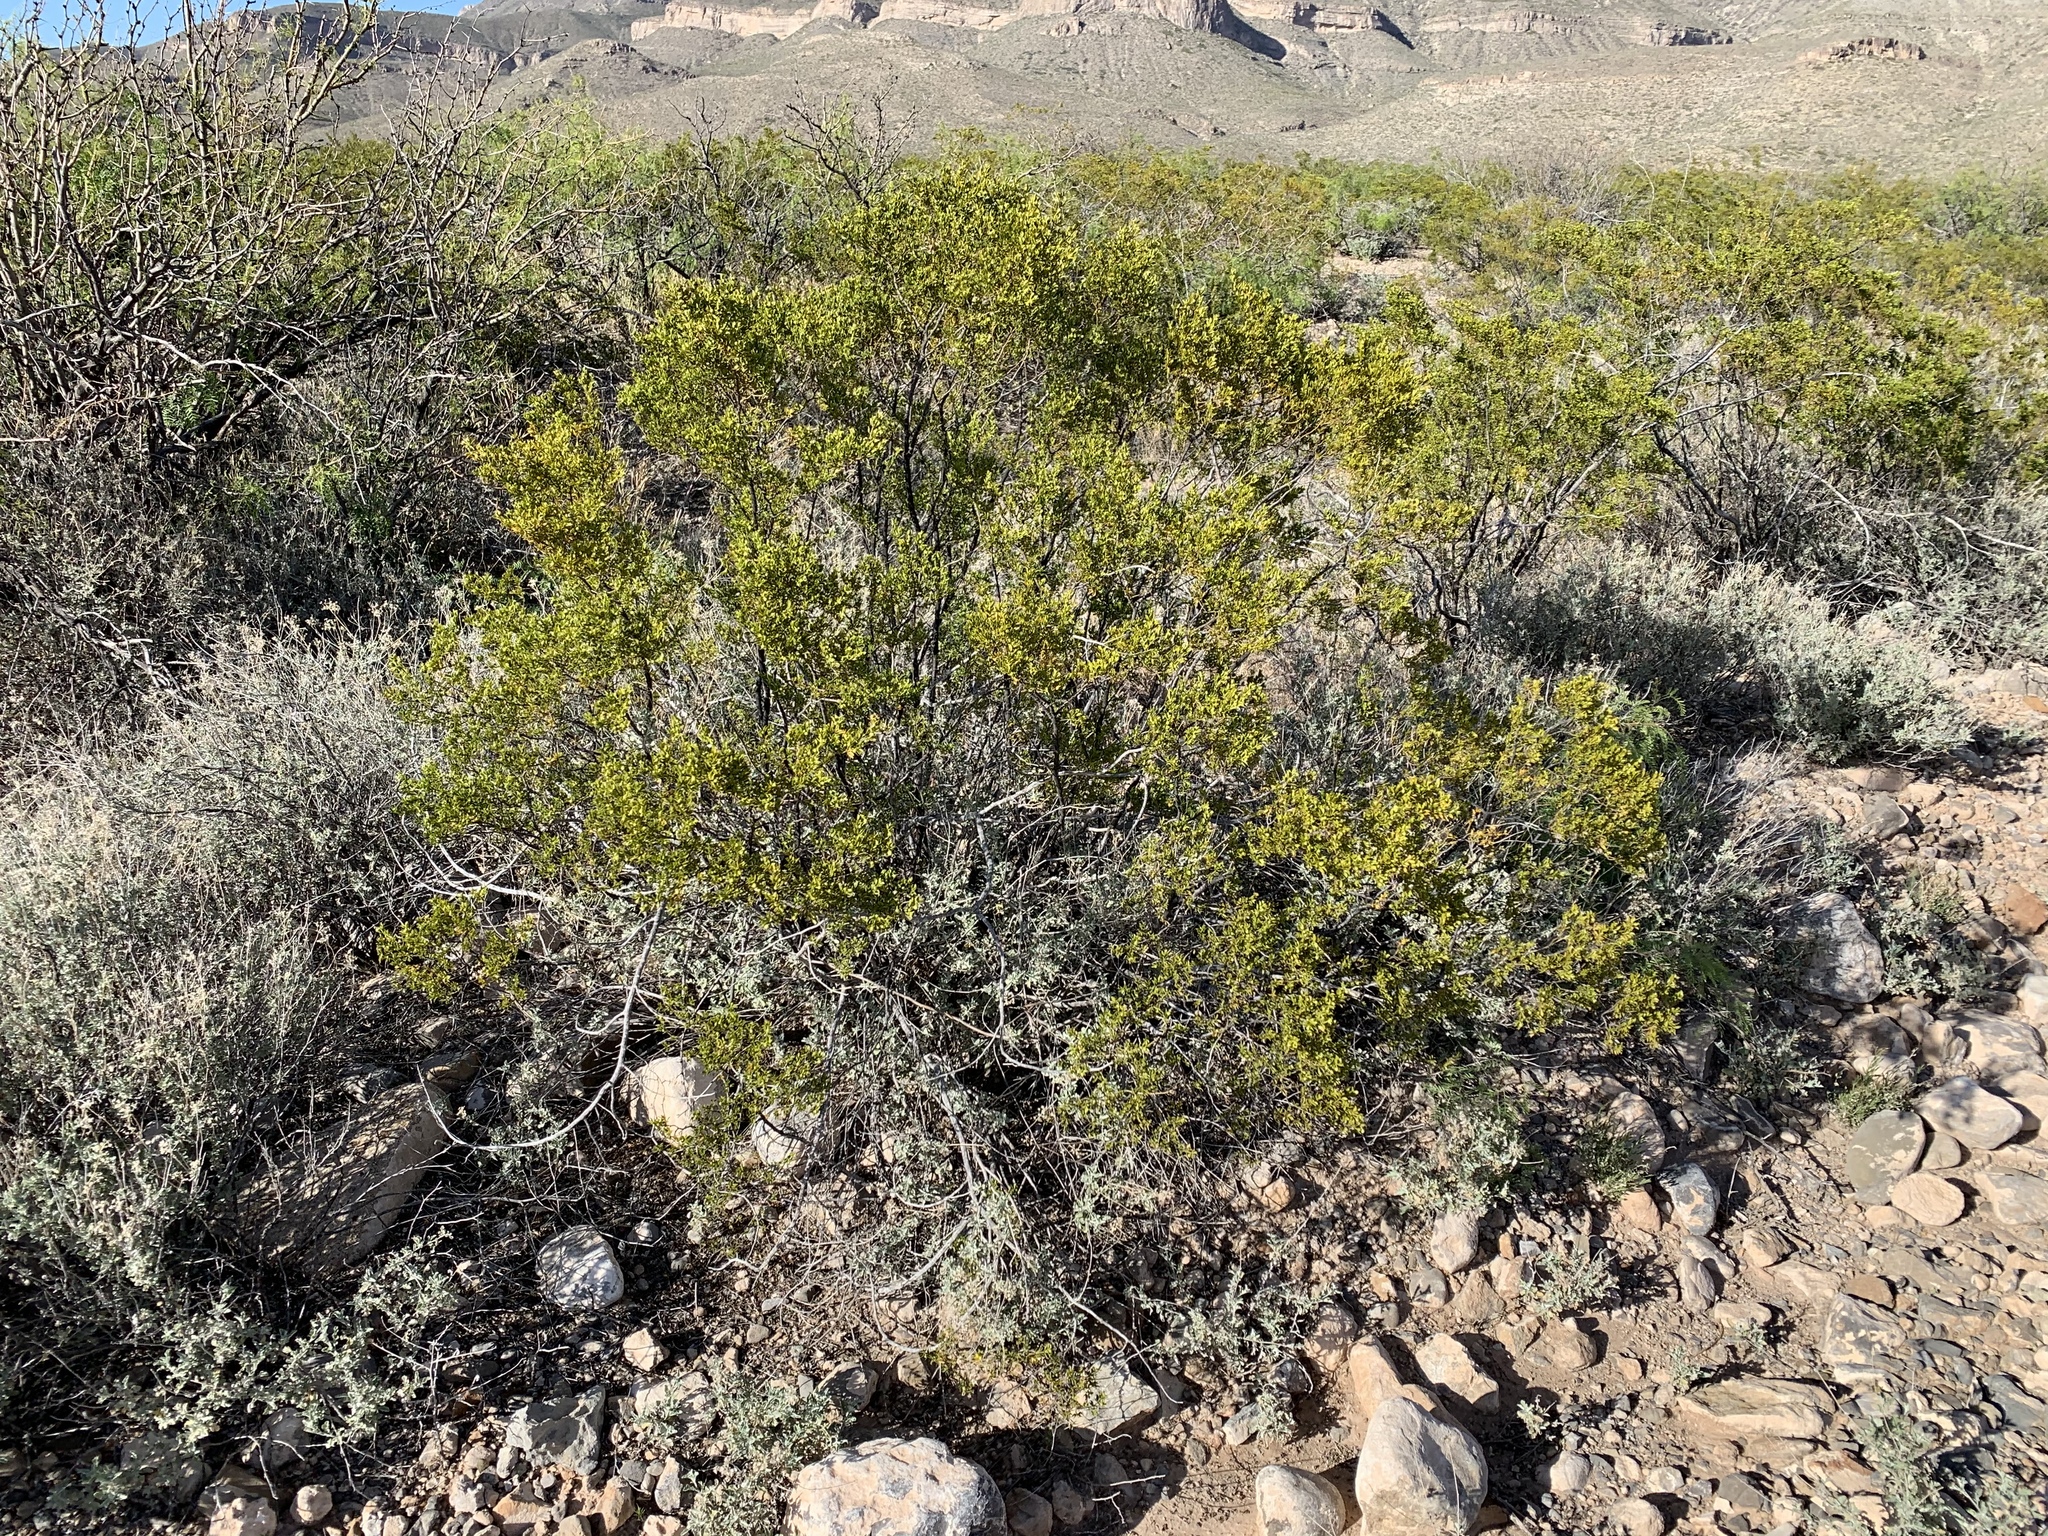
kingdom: Plantae
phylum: Tracheophyta
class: Magnoliopsida
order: Zygophyllales
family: Zygophyllaceae
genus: Larrea
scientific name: Larrea tridentata
